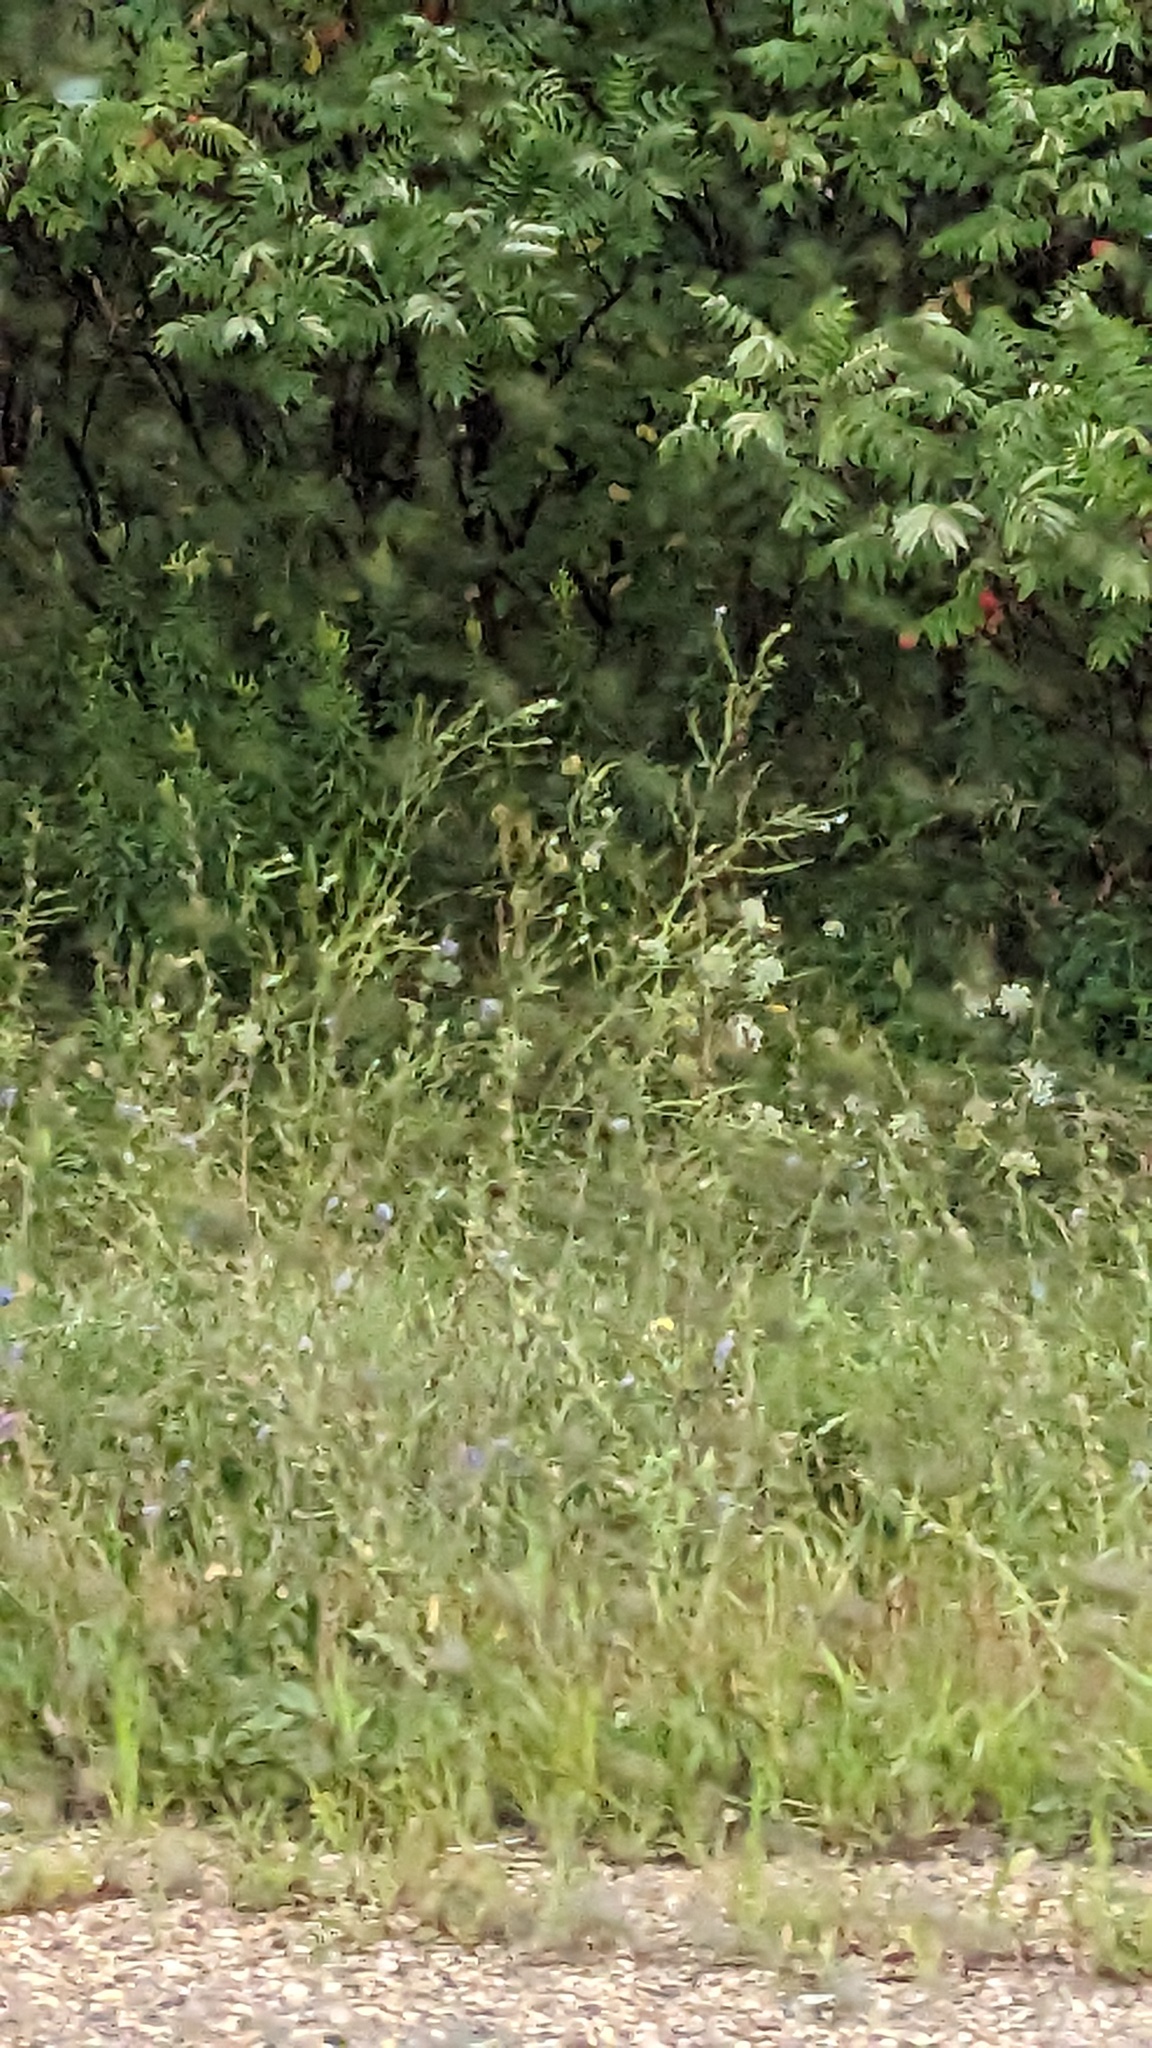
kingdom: Plantae
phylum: Tracheophyta
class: Magnoliopsida
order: Apiales
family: Apiaceae
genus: Daucus
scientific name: Daucus carota
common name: Wild carrot
